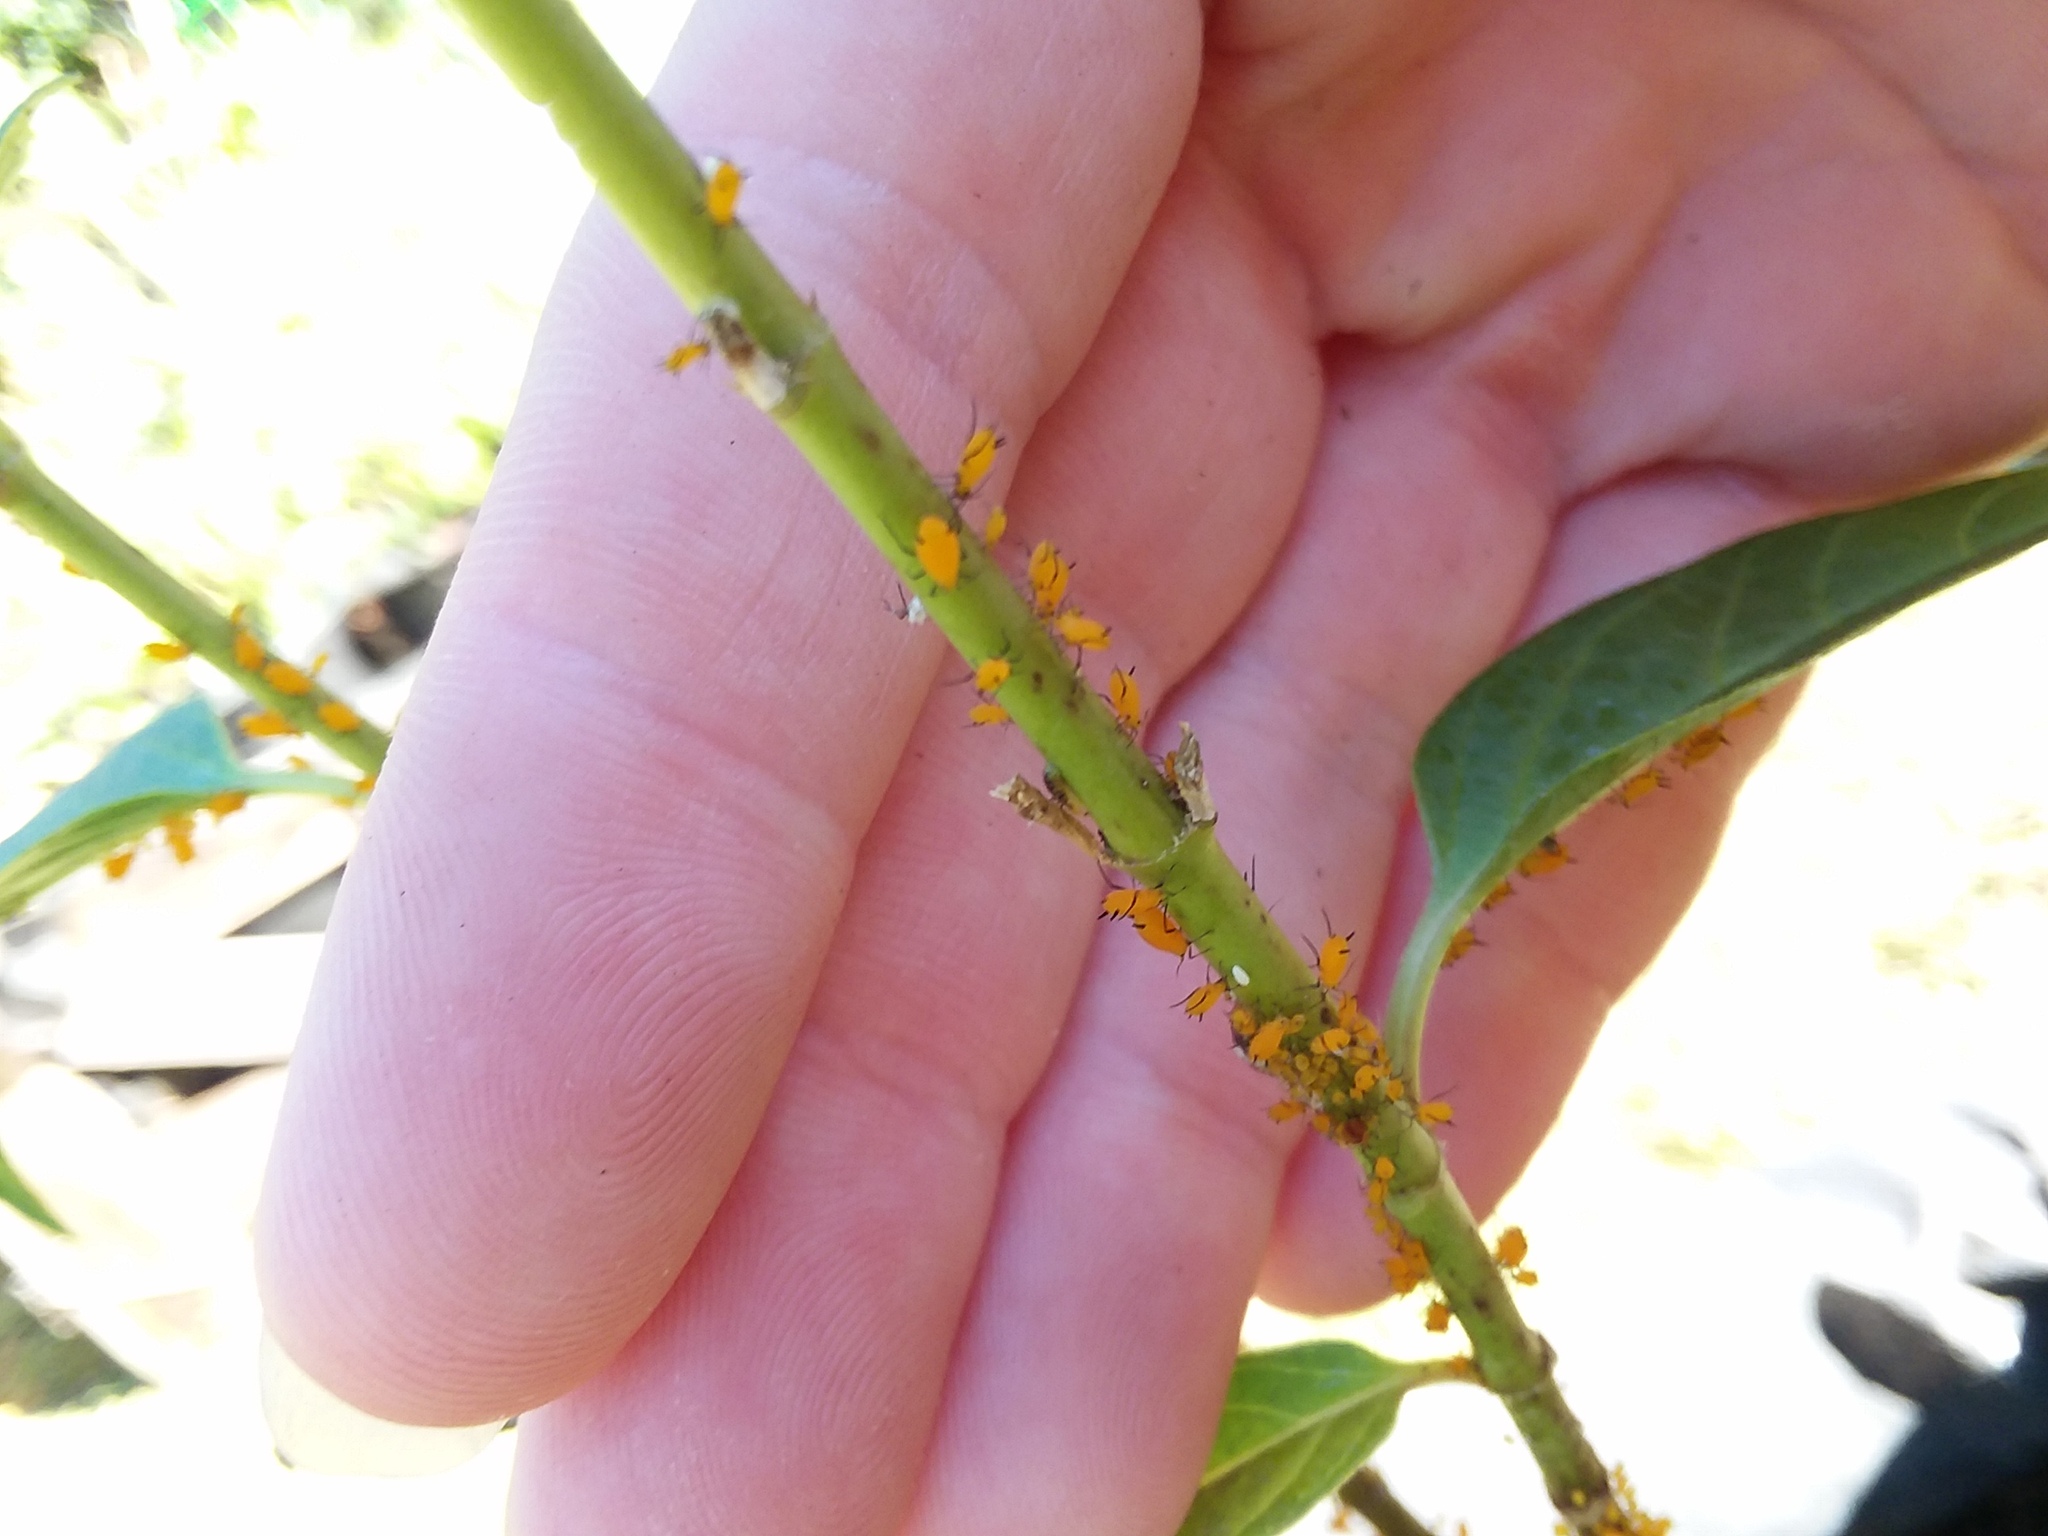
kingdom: Animalia
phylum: Arthropoda
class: Insecta
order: Diptera
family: Syrphidae
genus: Ocyptamus
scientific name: Ocyptamus fuscipennis
